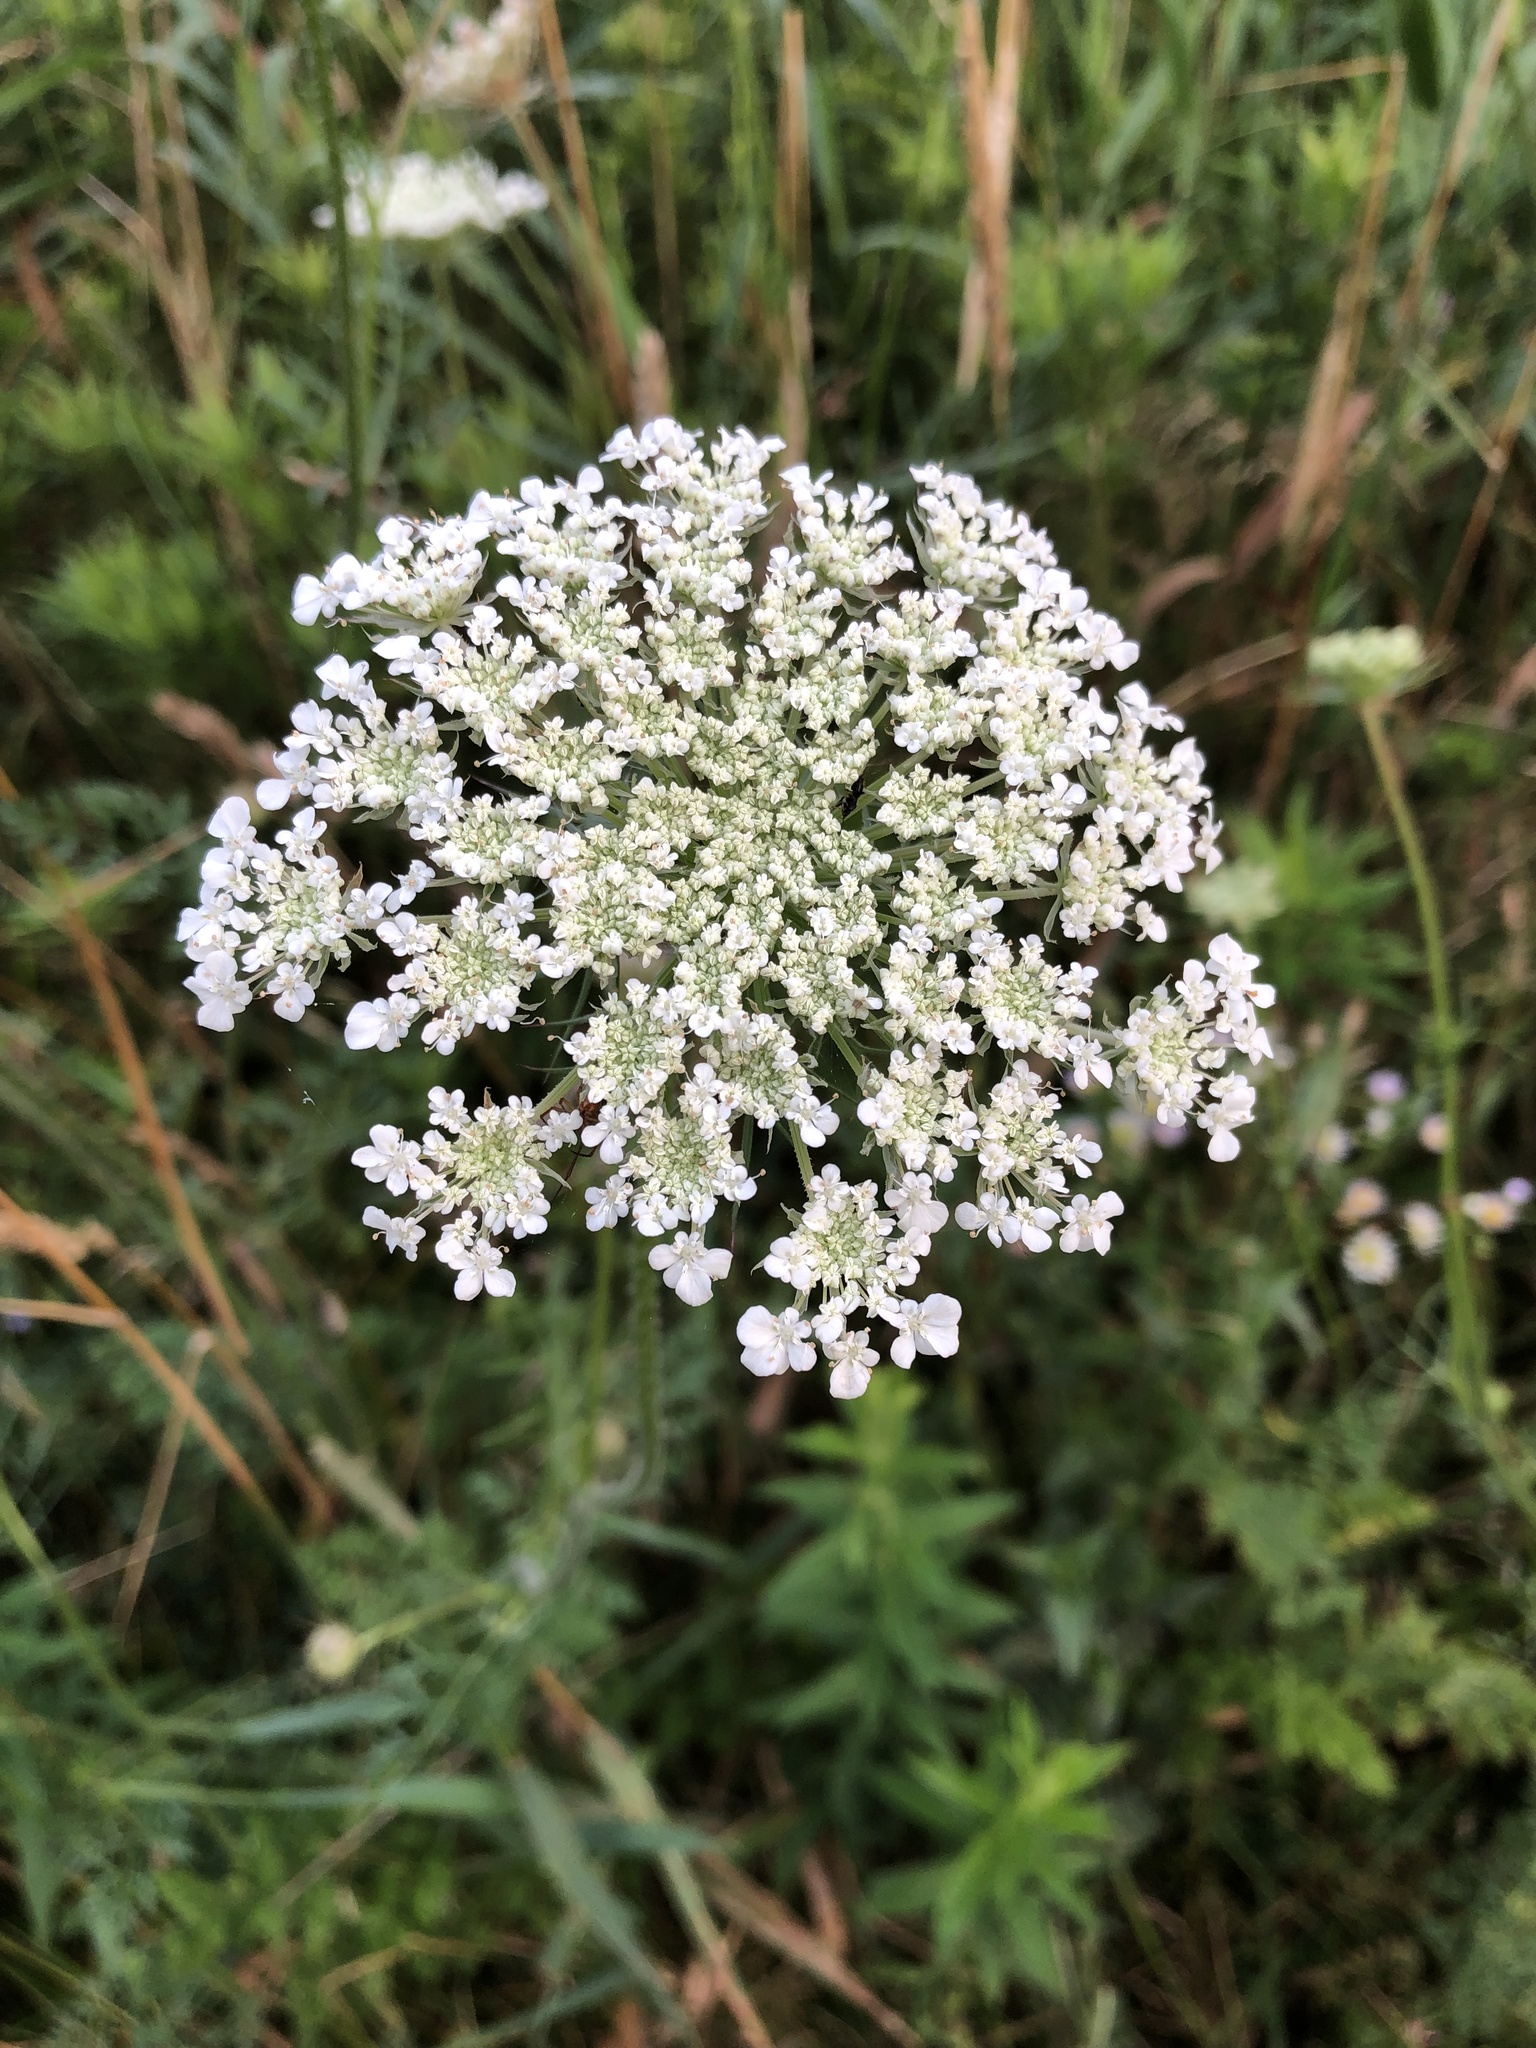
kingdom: Plantae
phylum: Tracheophyta
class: Magnoliopsida
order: Apiales
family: Apiaceae
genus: Daucus
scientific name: Daucus carota
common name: Wild carrot
